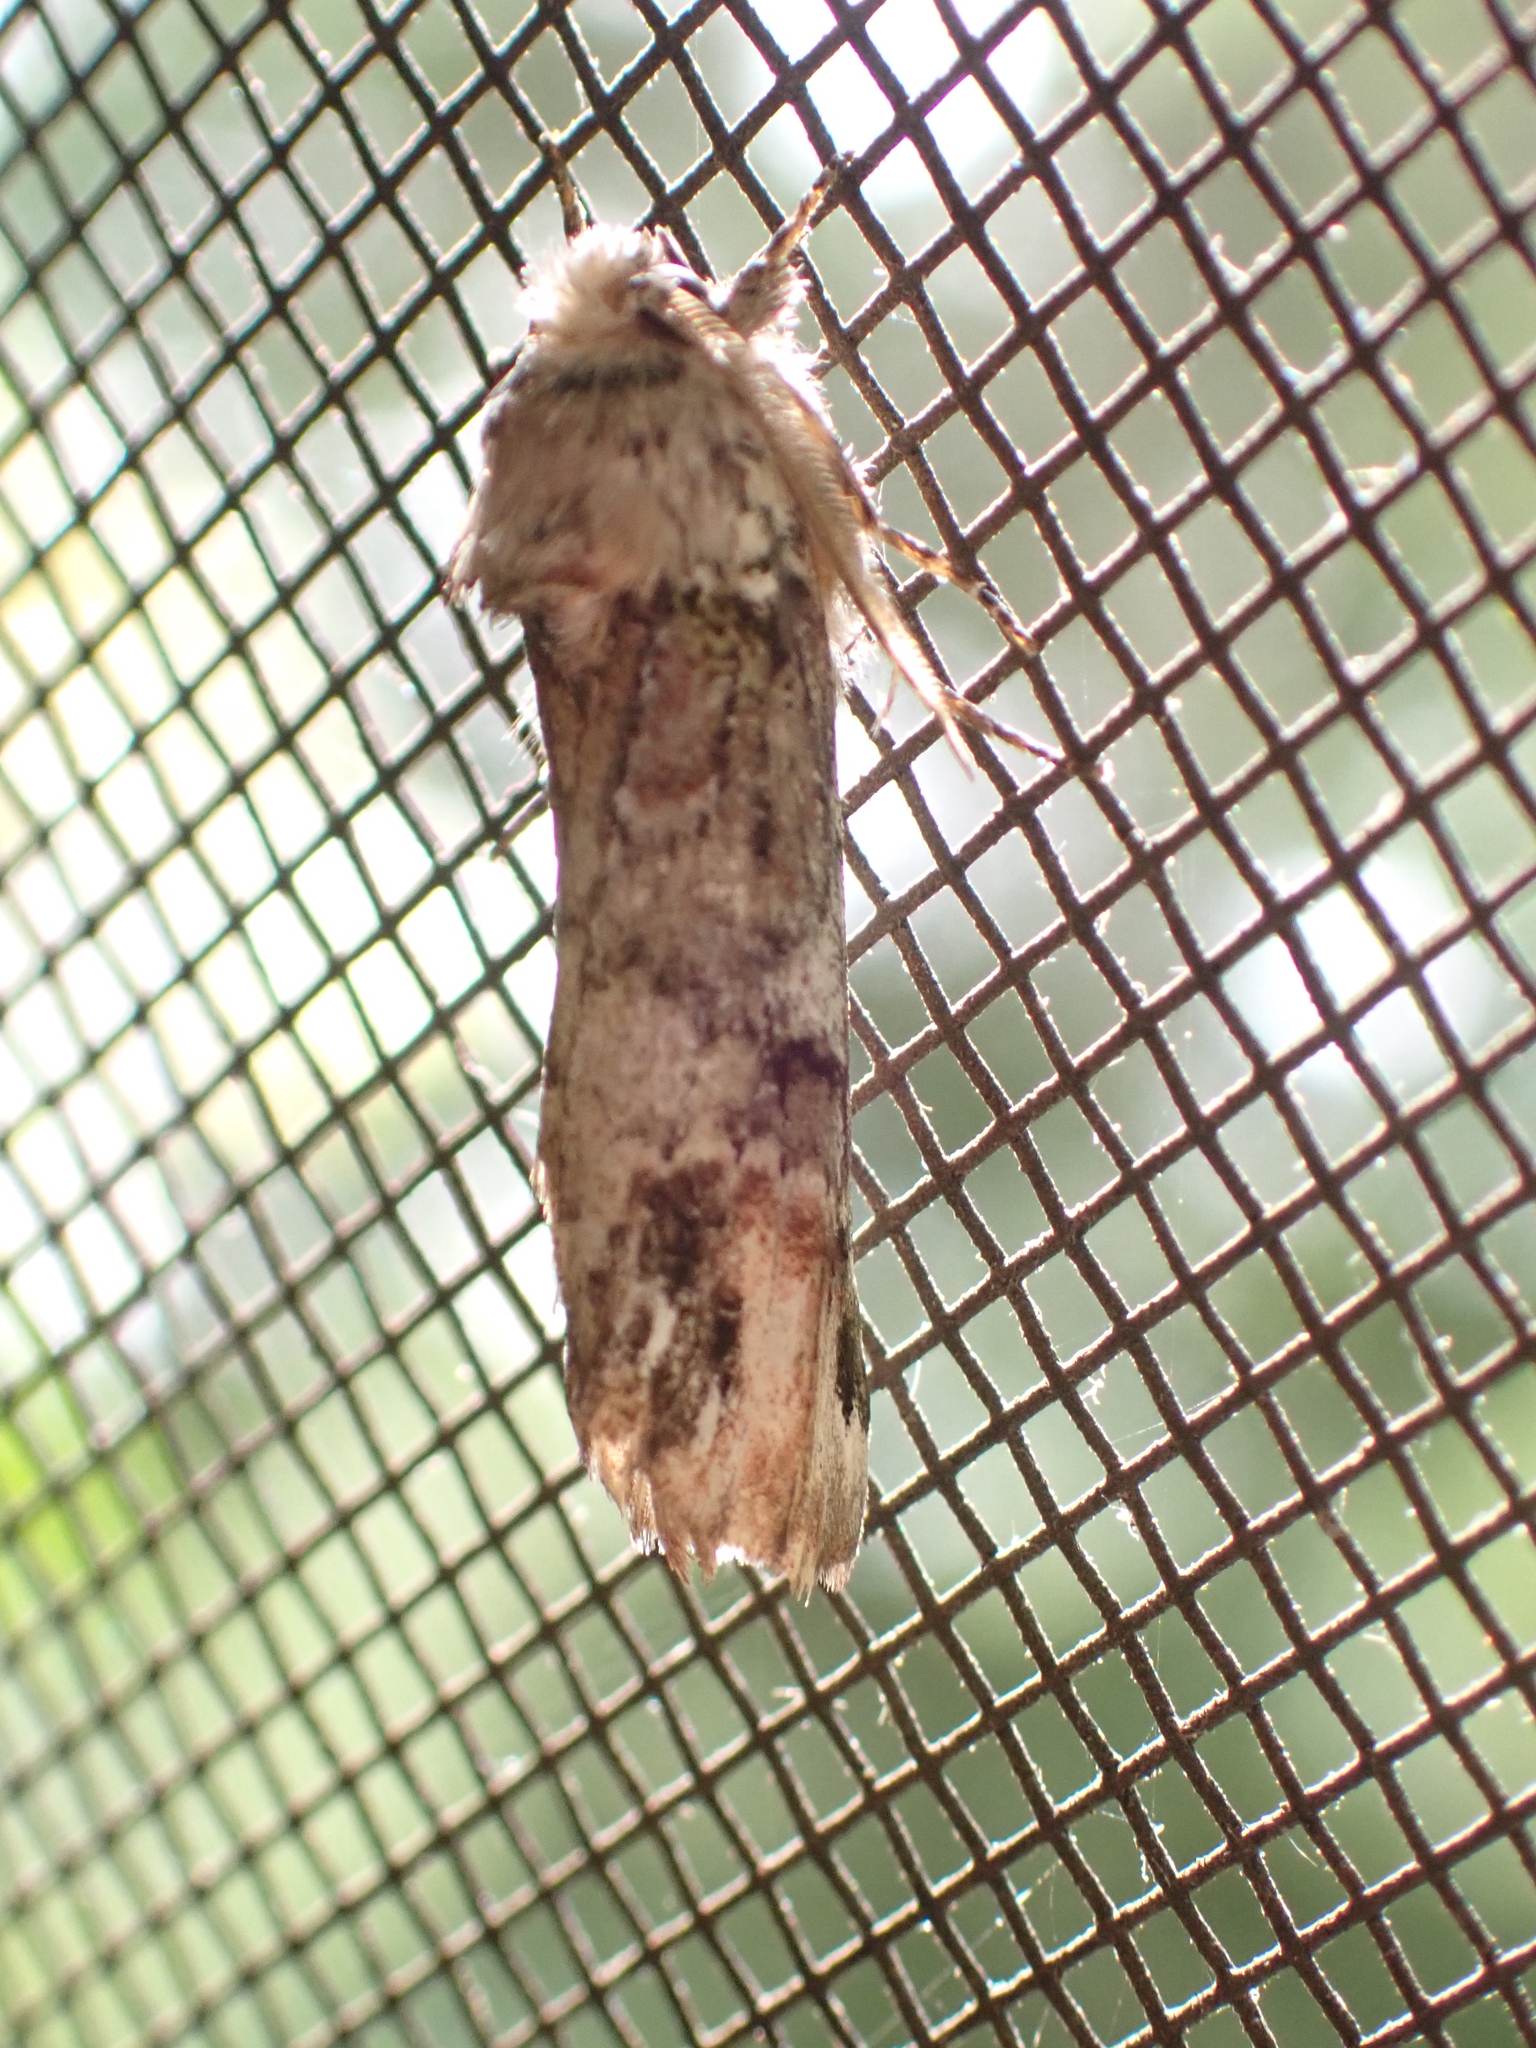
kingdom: Animalia
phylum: Arthropoda
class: Insecta
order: Lepidoptera
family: Notodontidae
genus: Schizura
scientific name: Schizura
